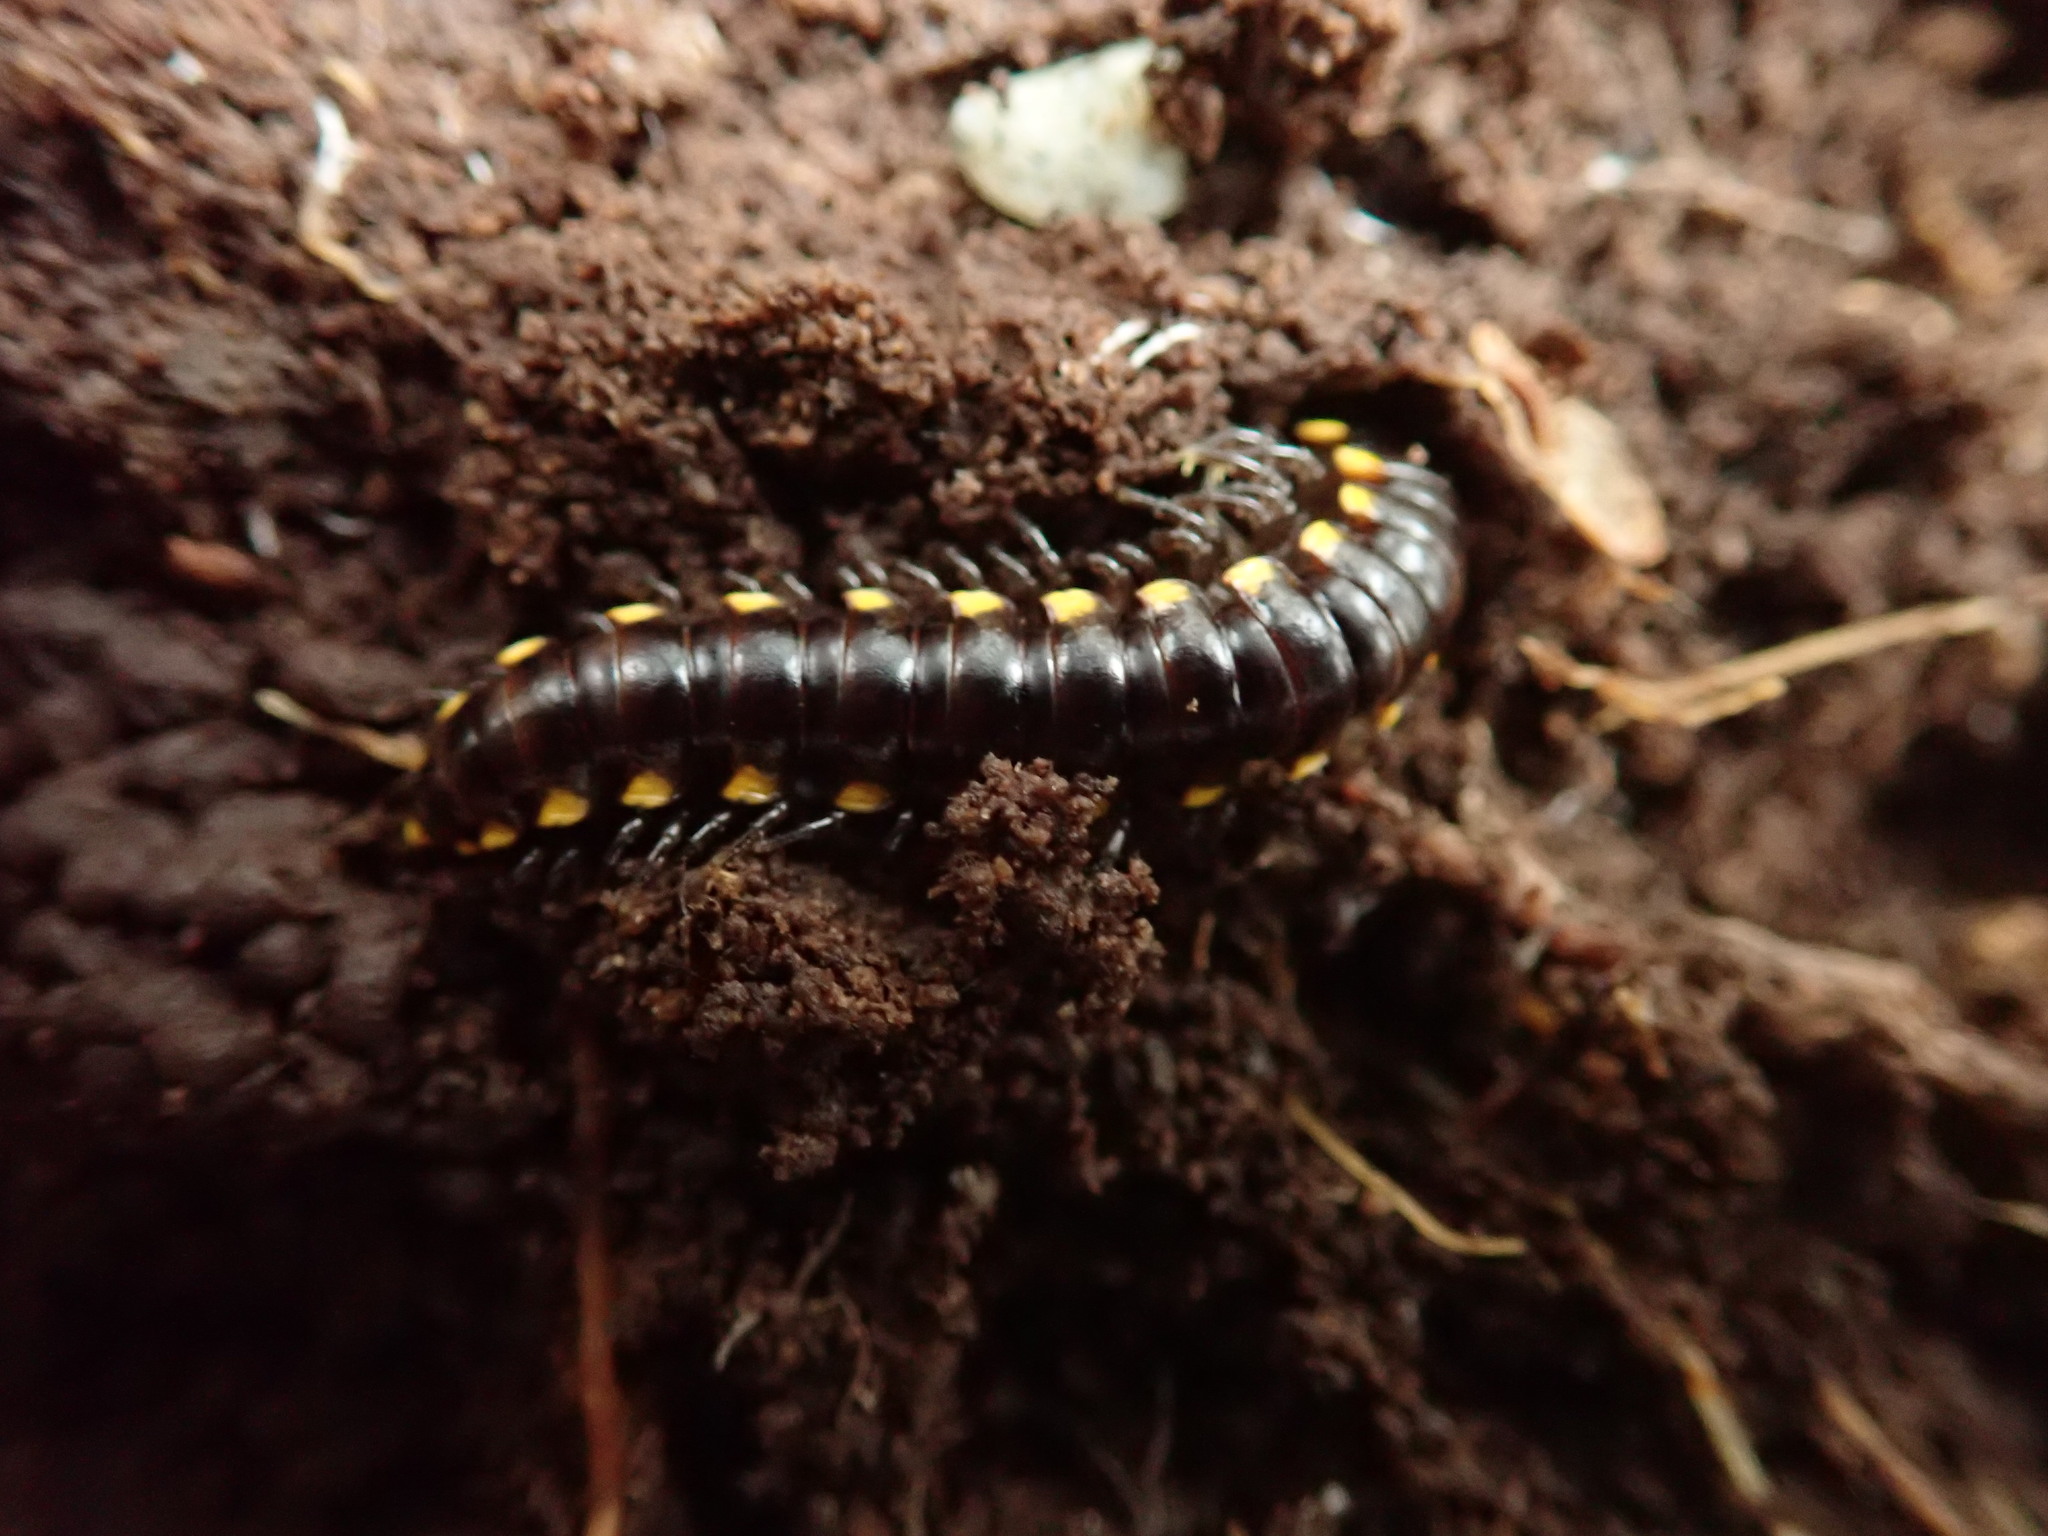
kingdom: Animalia
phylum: Arthropoda
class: Diplopoda
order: Polydesmida
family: Xystodesmidae
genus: Harpaphe
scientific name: Harpaphe haydeniana
